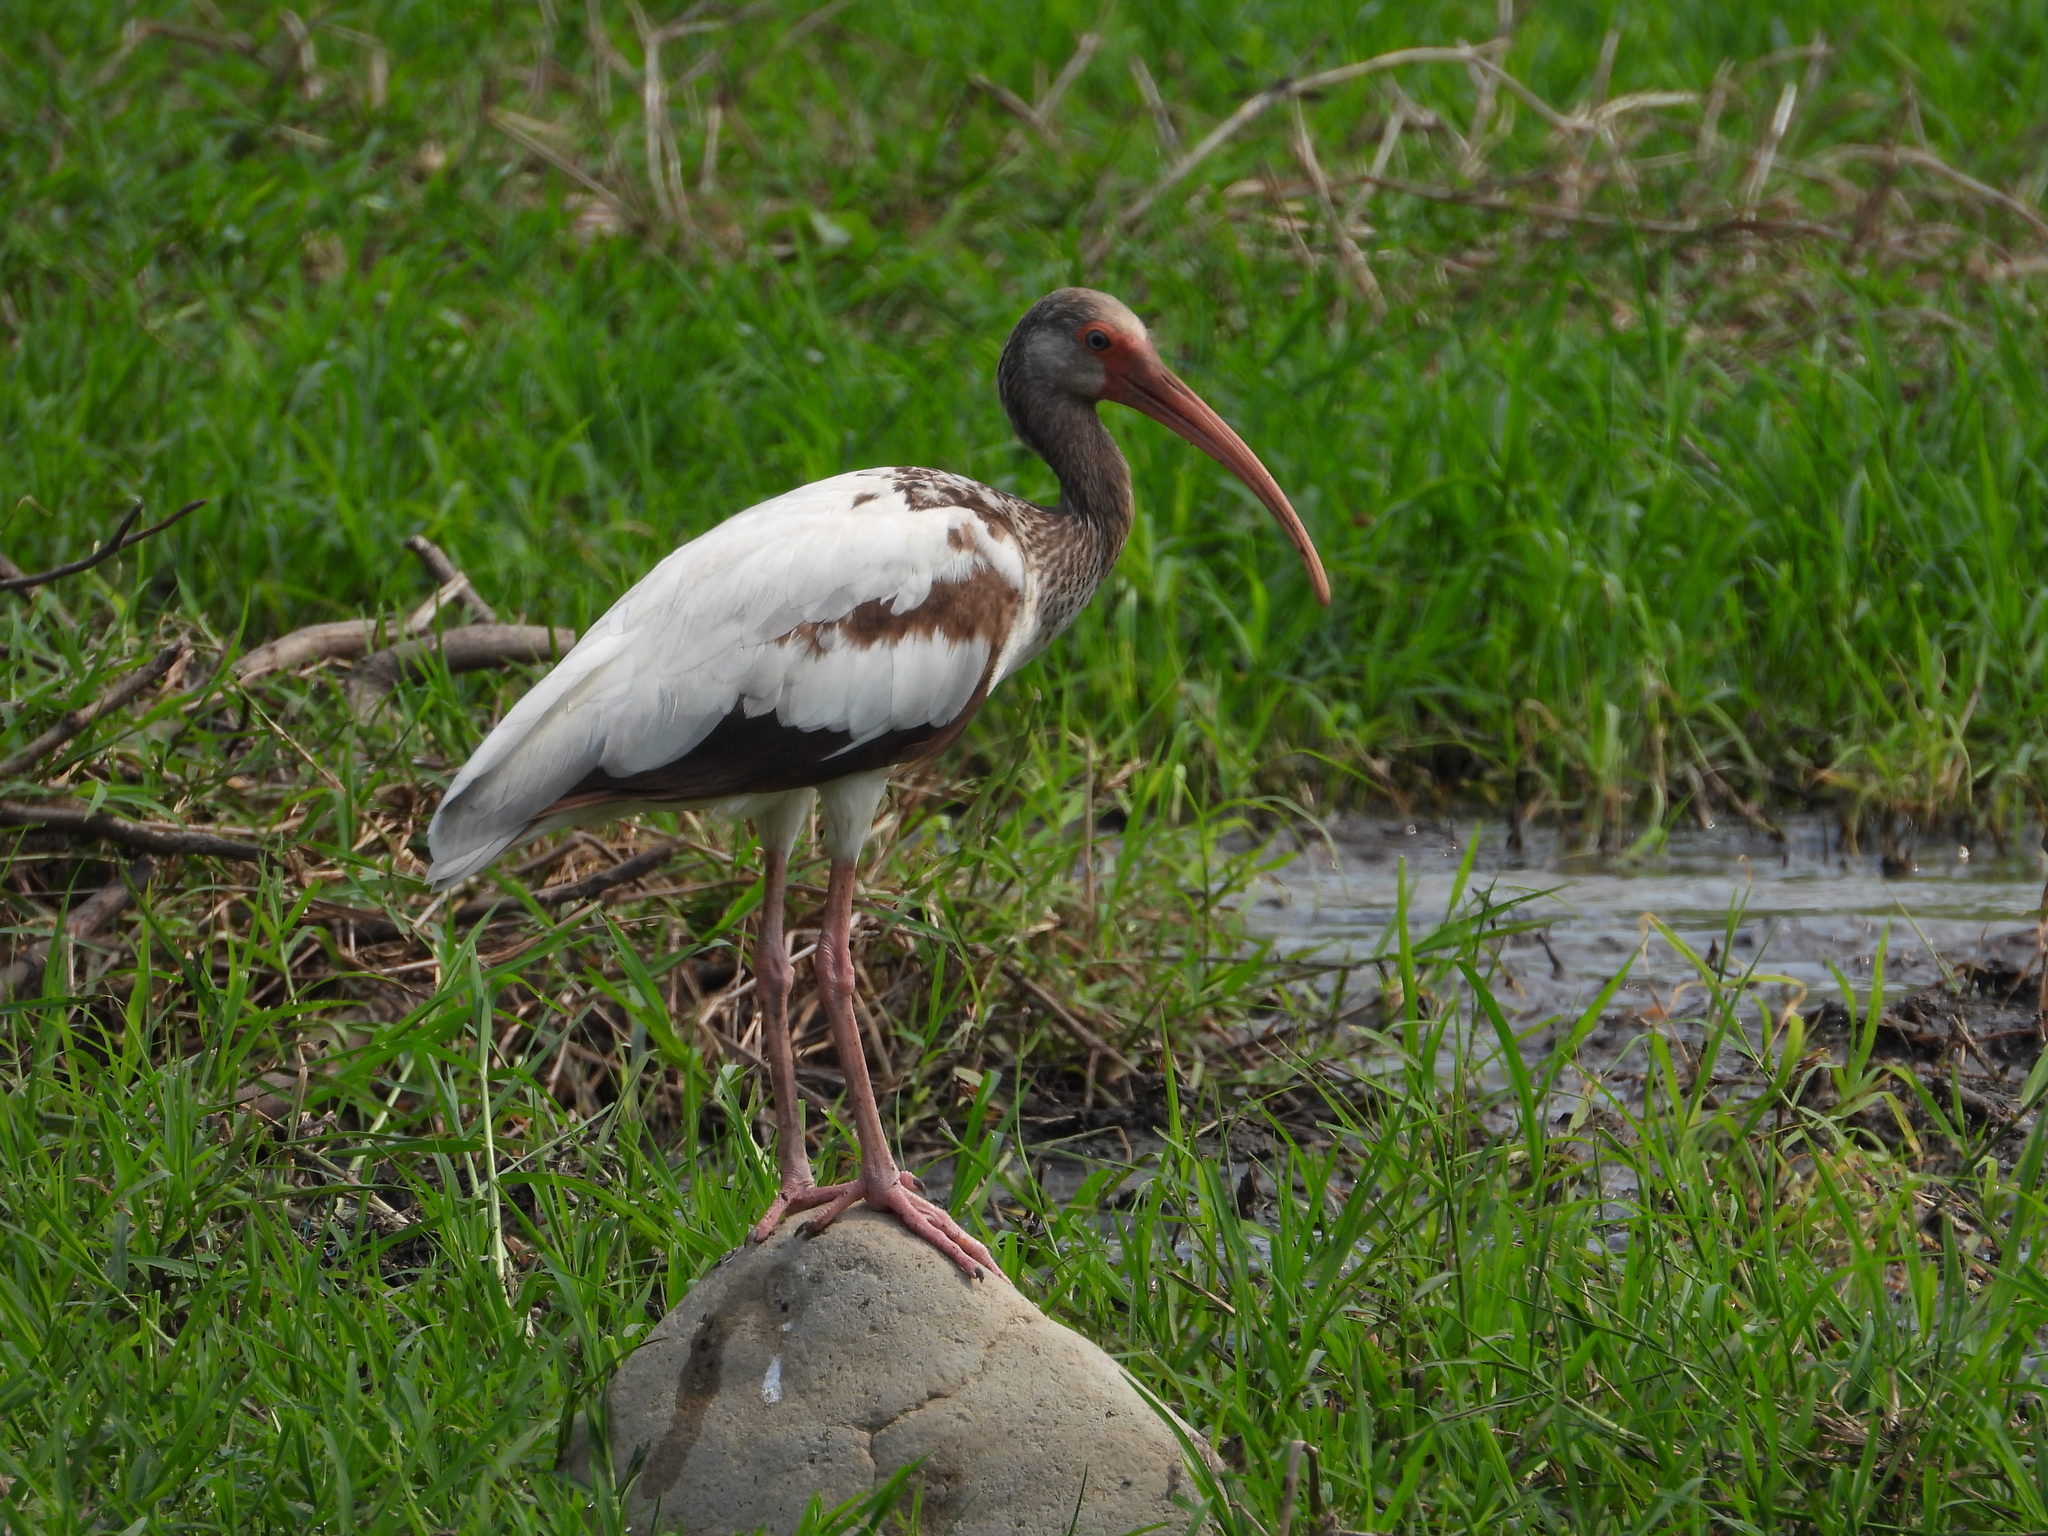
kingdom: Animalia
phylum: Chordata
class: Aves
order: Pelecaniformes
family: Threskiornithidae
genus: Eudocimus
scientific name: Eudocimus albus
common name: White ibis
